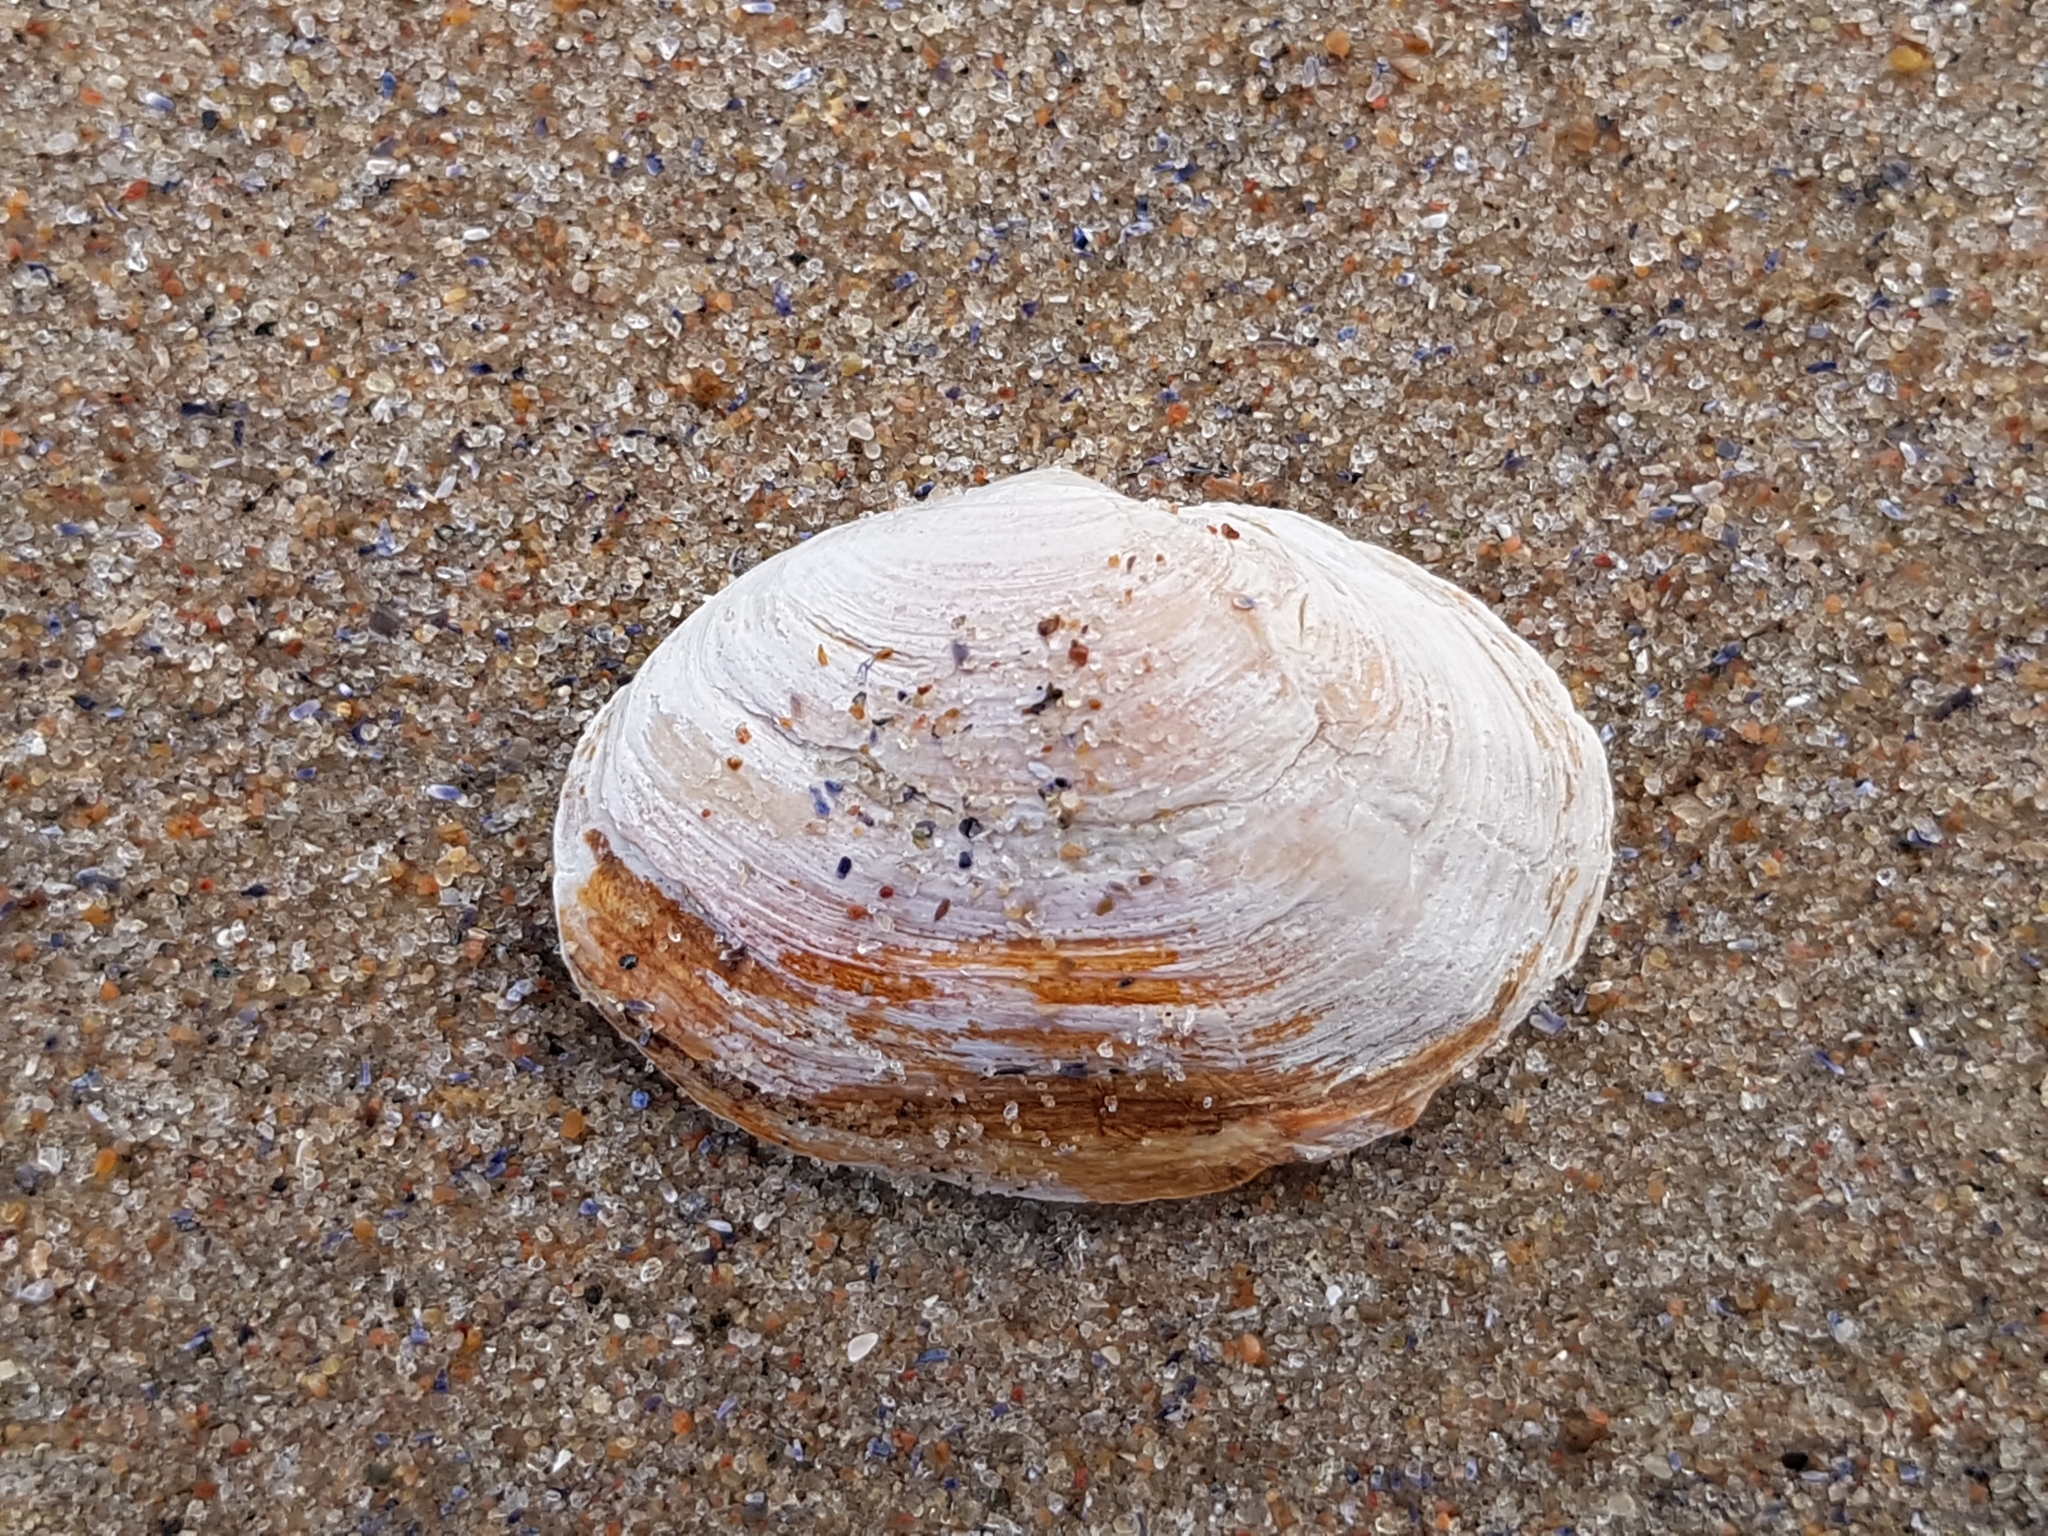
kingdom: Animalia
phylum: Mollusca
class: Bivalvia
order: Myida
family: Myidae
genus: Mya
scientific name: Mya arenaria
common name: Soft-shelled clam
